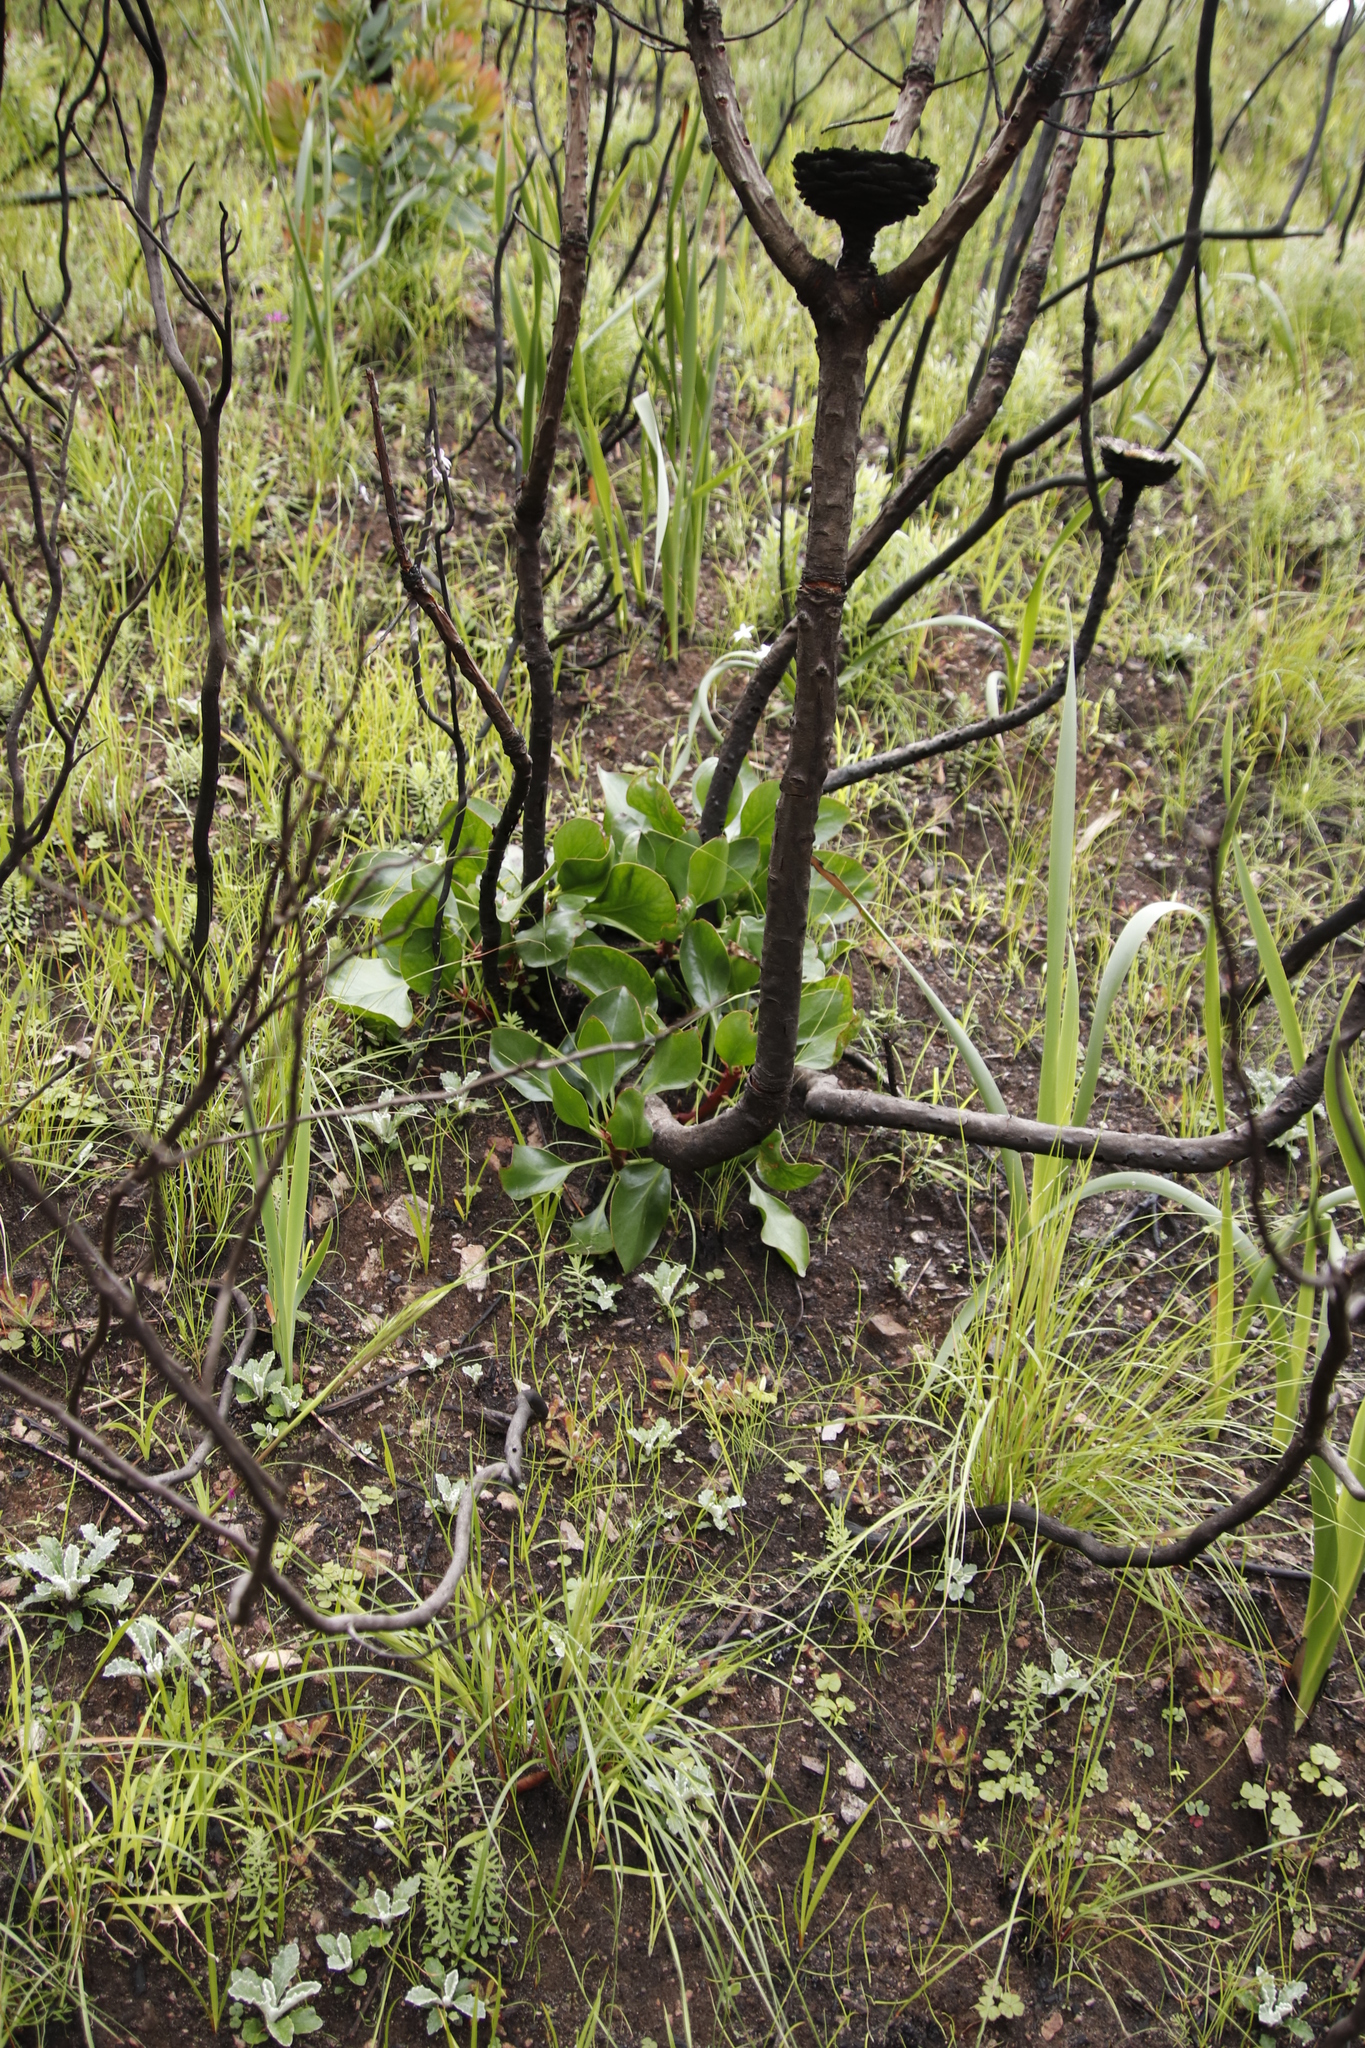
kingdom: Plantae
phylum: Tracheophyta
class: Magnoliopsida
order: Proteales
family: Proteaceae
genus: Protea
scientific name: Protea cynaroides
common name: King protea
